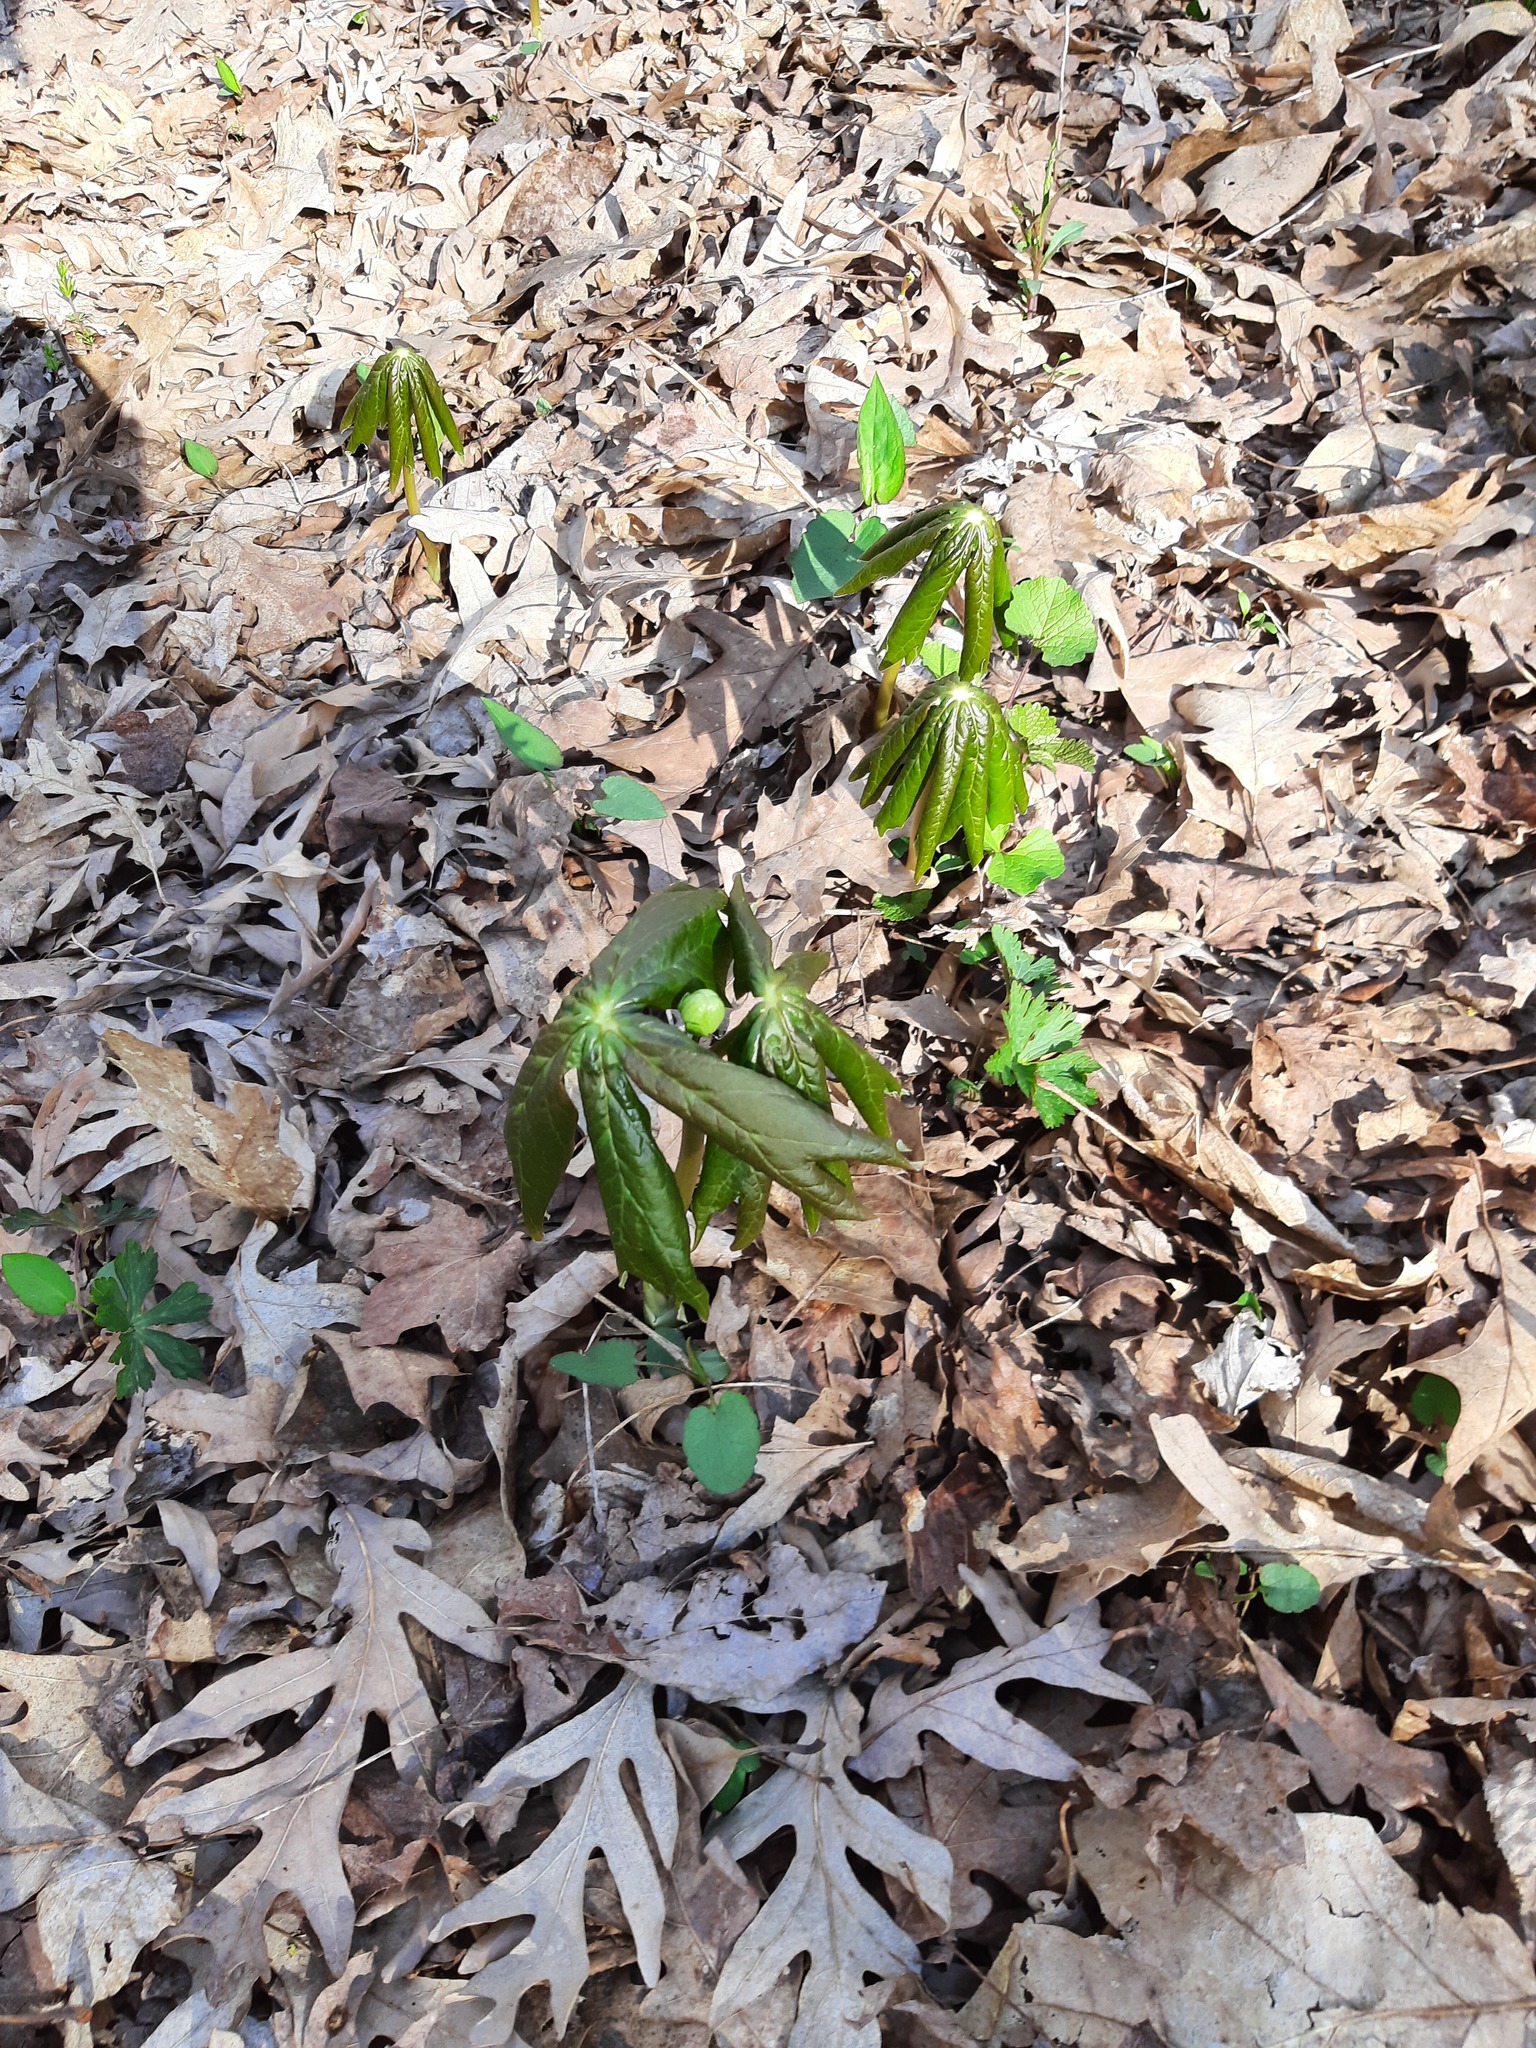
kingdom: Plantae
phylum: Tracheophyta
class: Magnoliopsida
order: Ranunculales
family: Berberidaceae
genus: Podophyllum
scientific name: Podophyllum peltatum
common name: Wild mandrake
